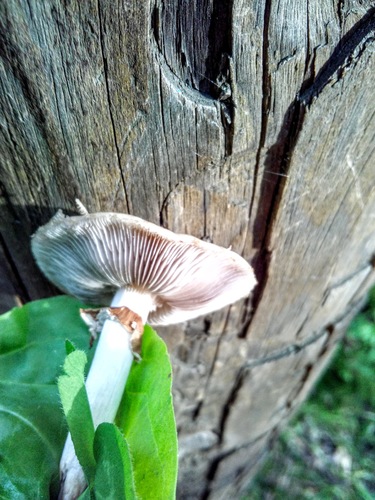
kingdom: Fungi
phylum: Basidiomycota
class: Agaricomycetes
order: Agaricales
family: Strophariaceae
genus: Agrocybe
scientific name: Agrocybe
